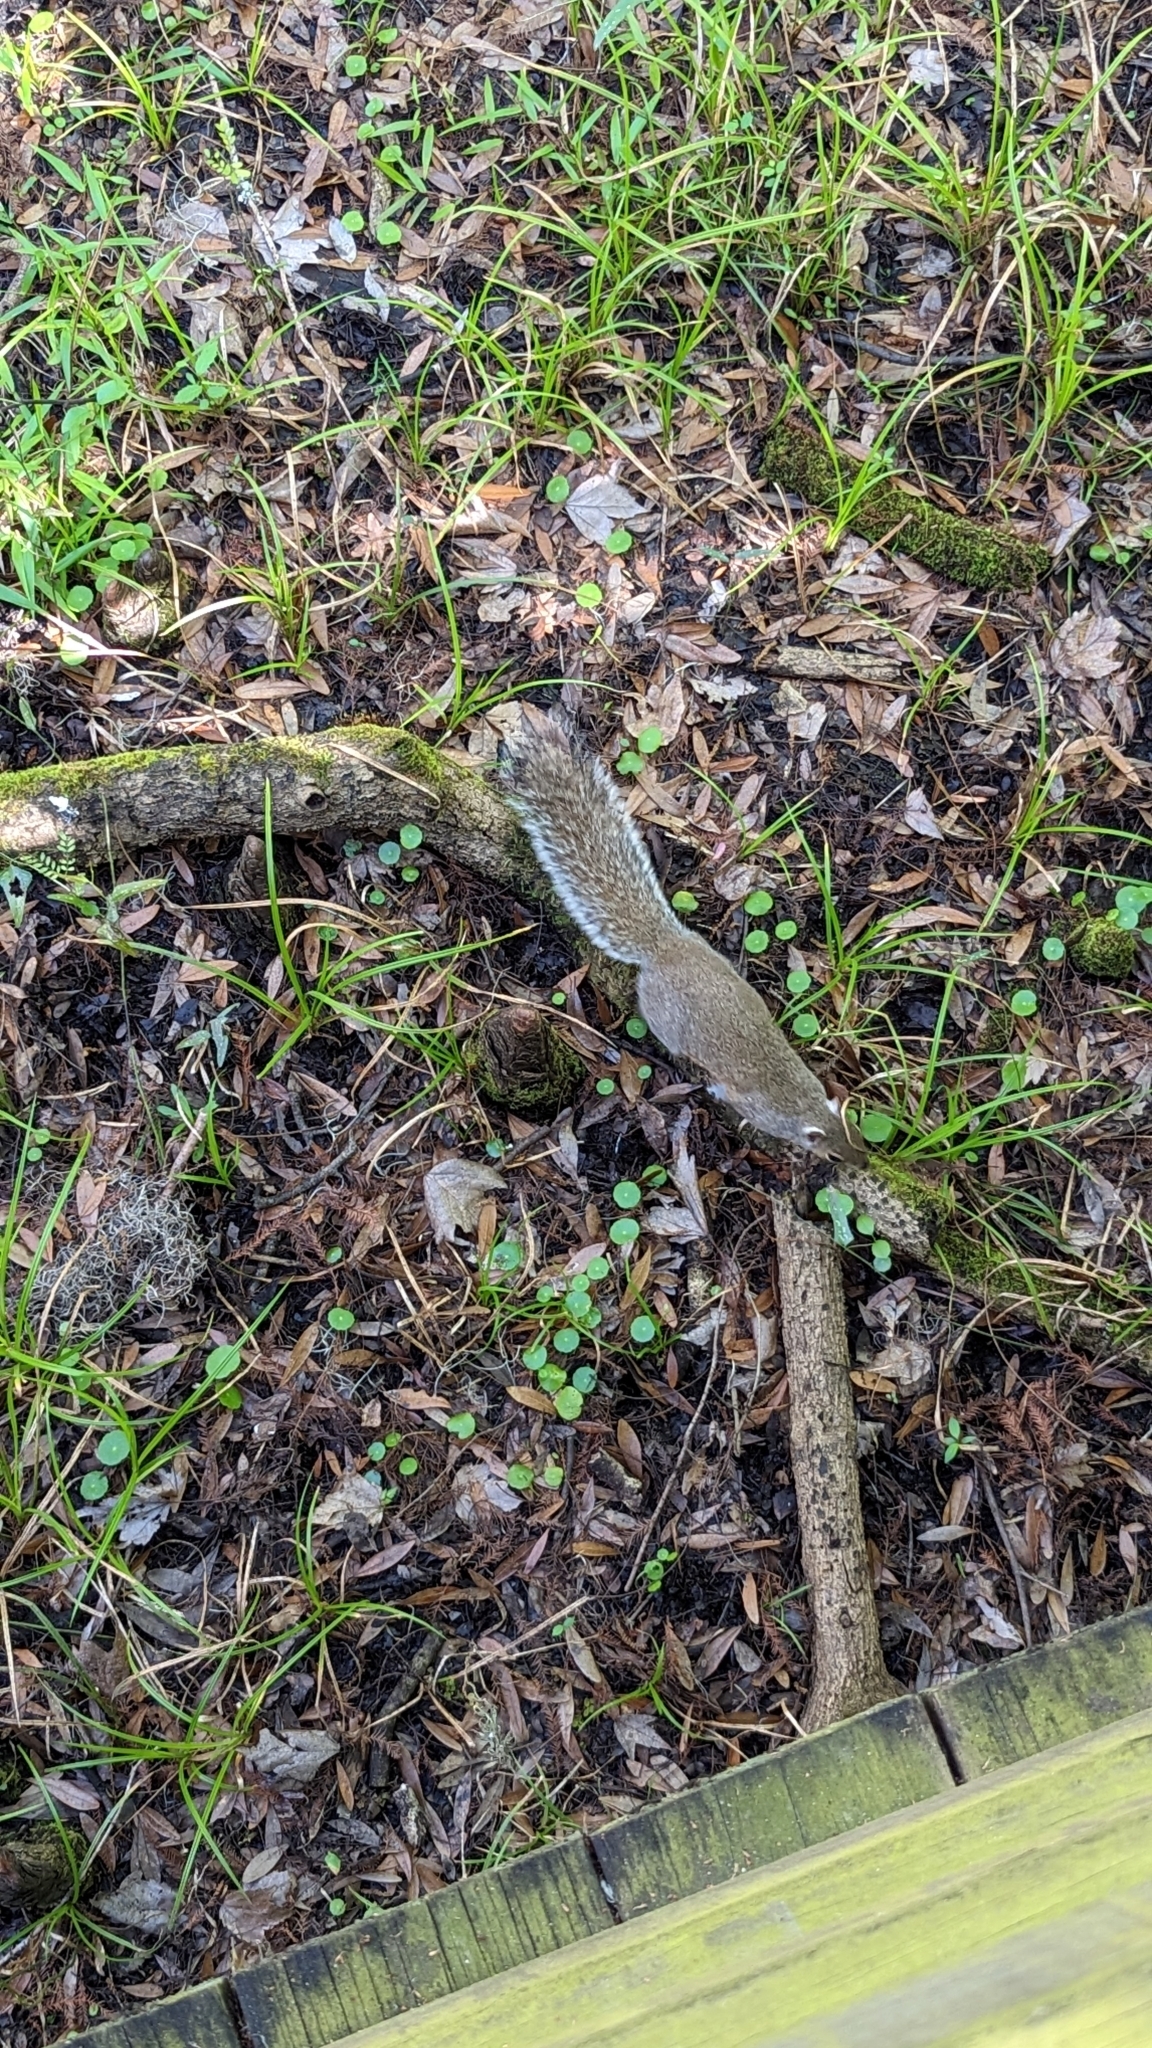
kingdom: Animalia
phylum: Chordata
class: Mammalia
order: Rodentia
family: Sciuridae
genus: Sciurus
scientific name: Sciurus carolinensis
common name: Eastern gray squirrel
